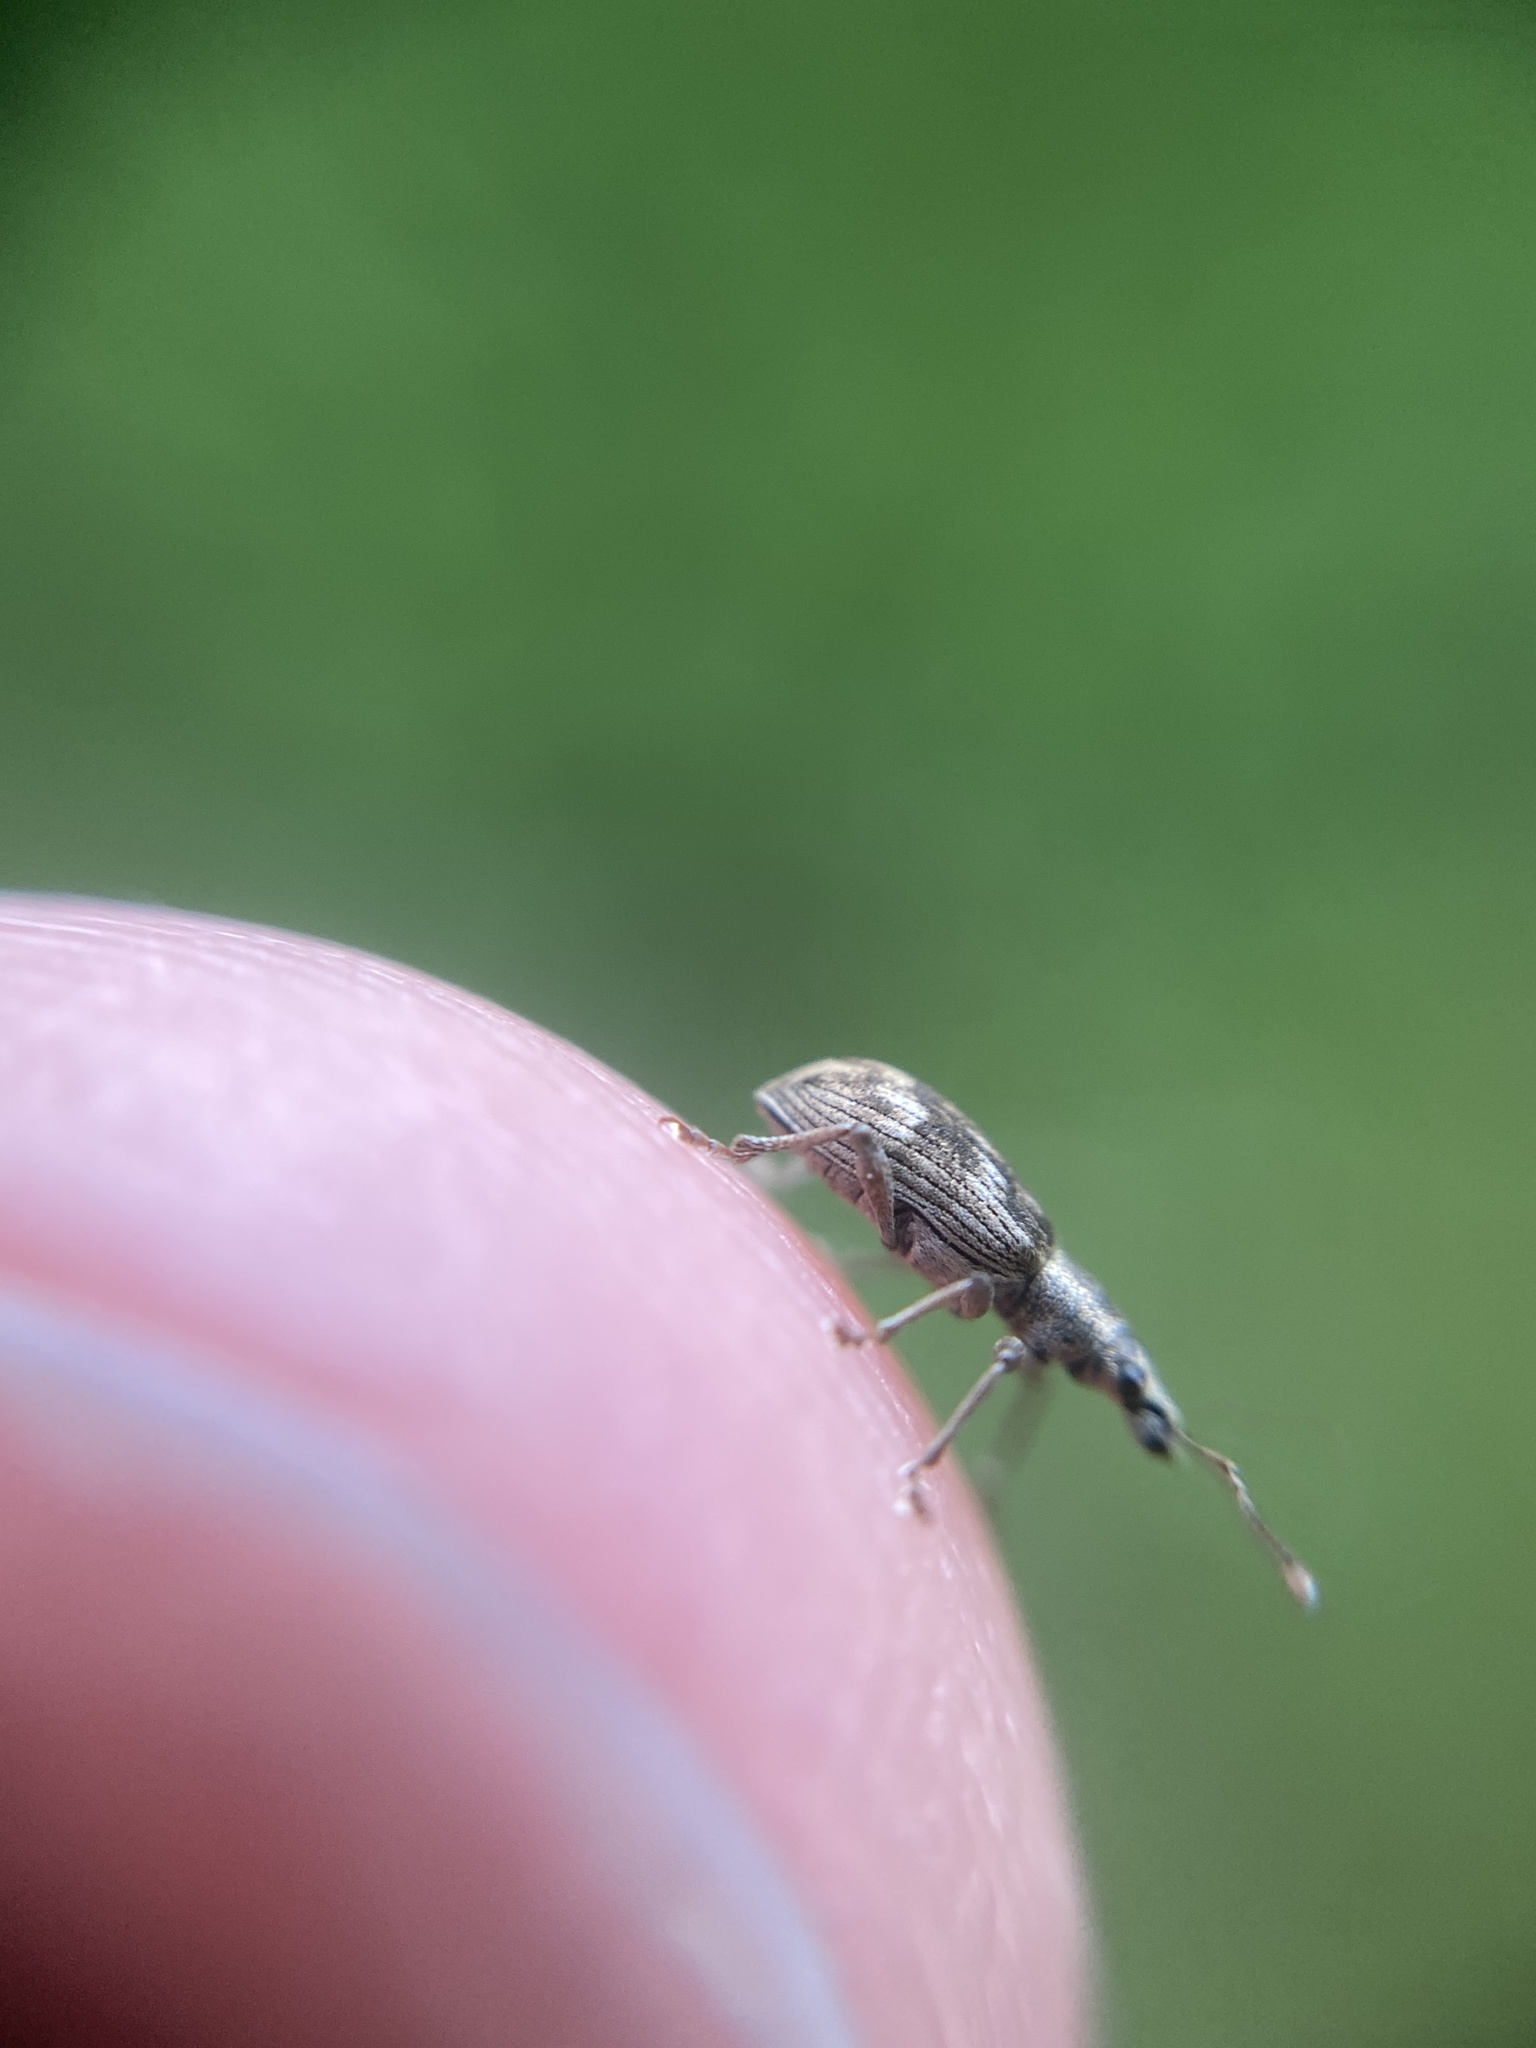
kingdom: Animalia
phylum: Arthropoda
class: Insecta
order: Coleoptera
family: Curculionidae
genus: Polydrusus
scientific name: Polydrusus tereticollis
